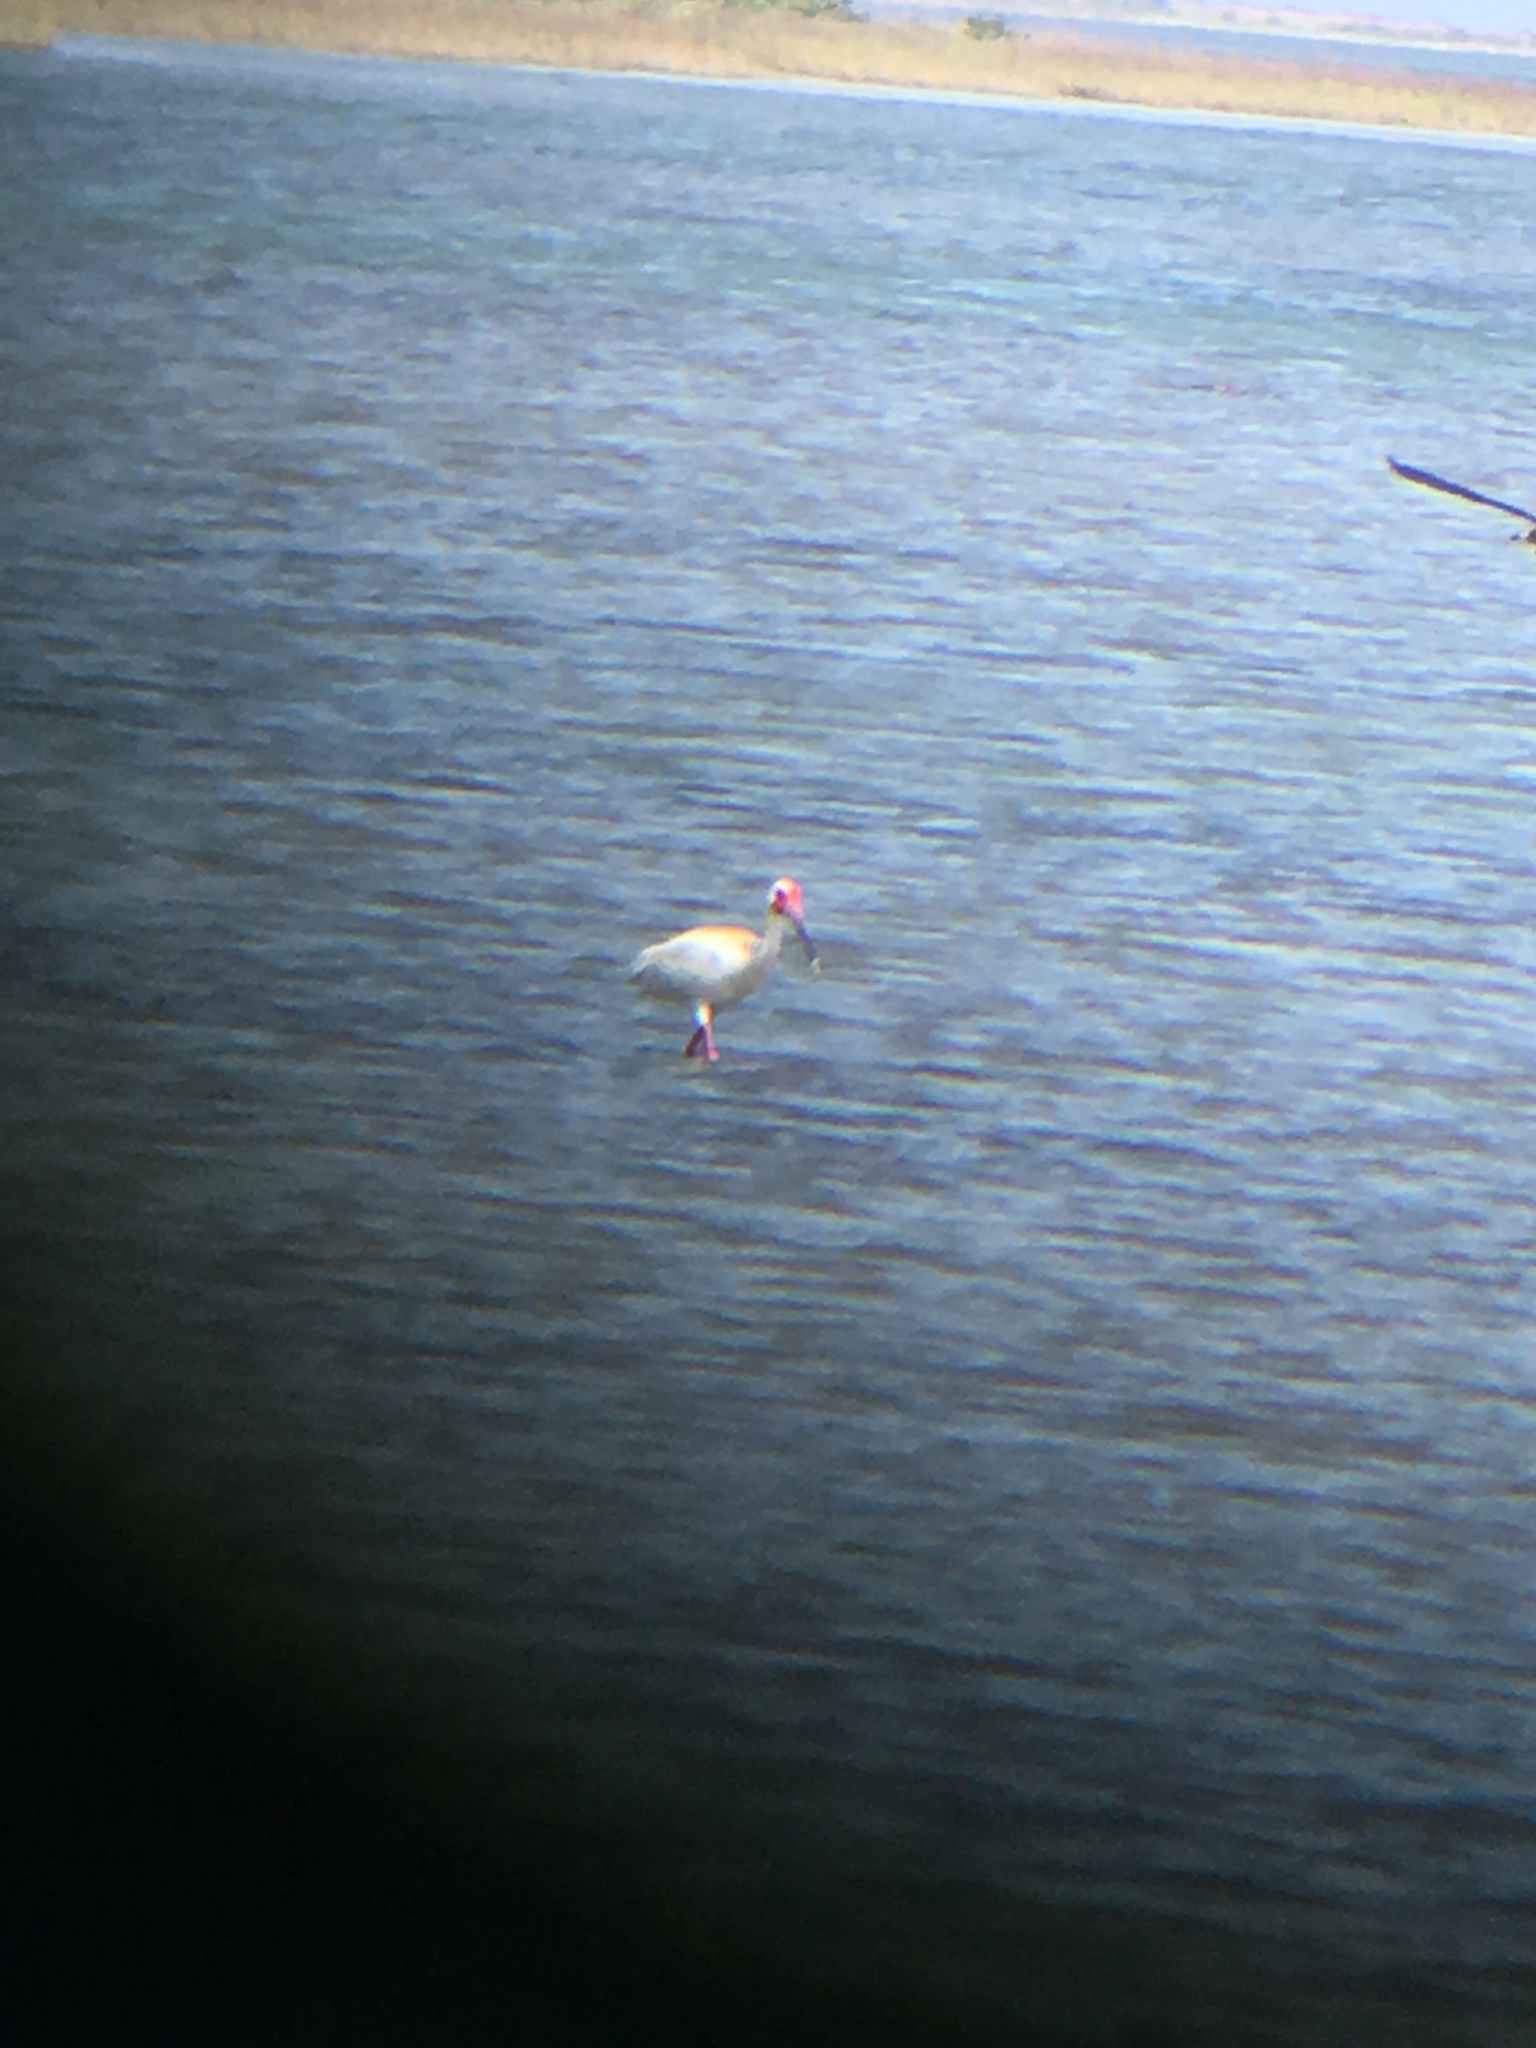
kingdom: Animalia
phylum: Chordata
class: Aves
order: Pelecaniformes
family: Threskiornithidae
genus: Eudocimus
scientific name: Eudocimus albus
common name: White ibis
